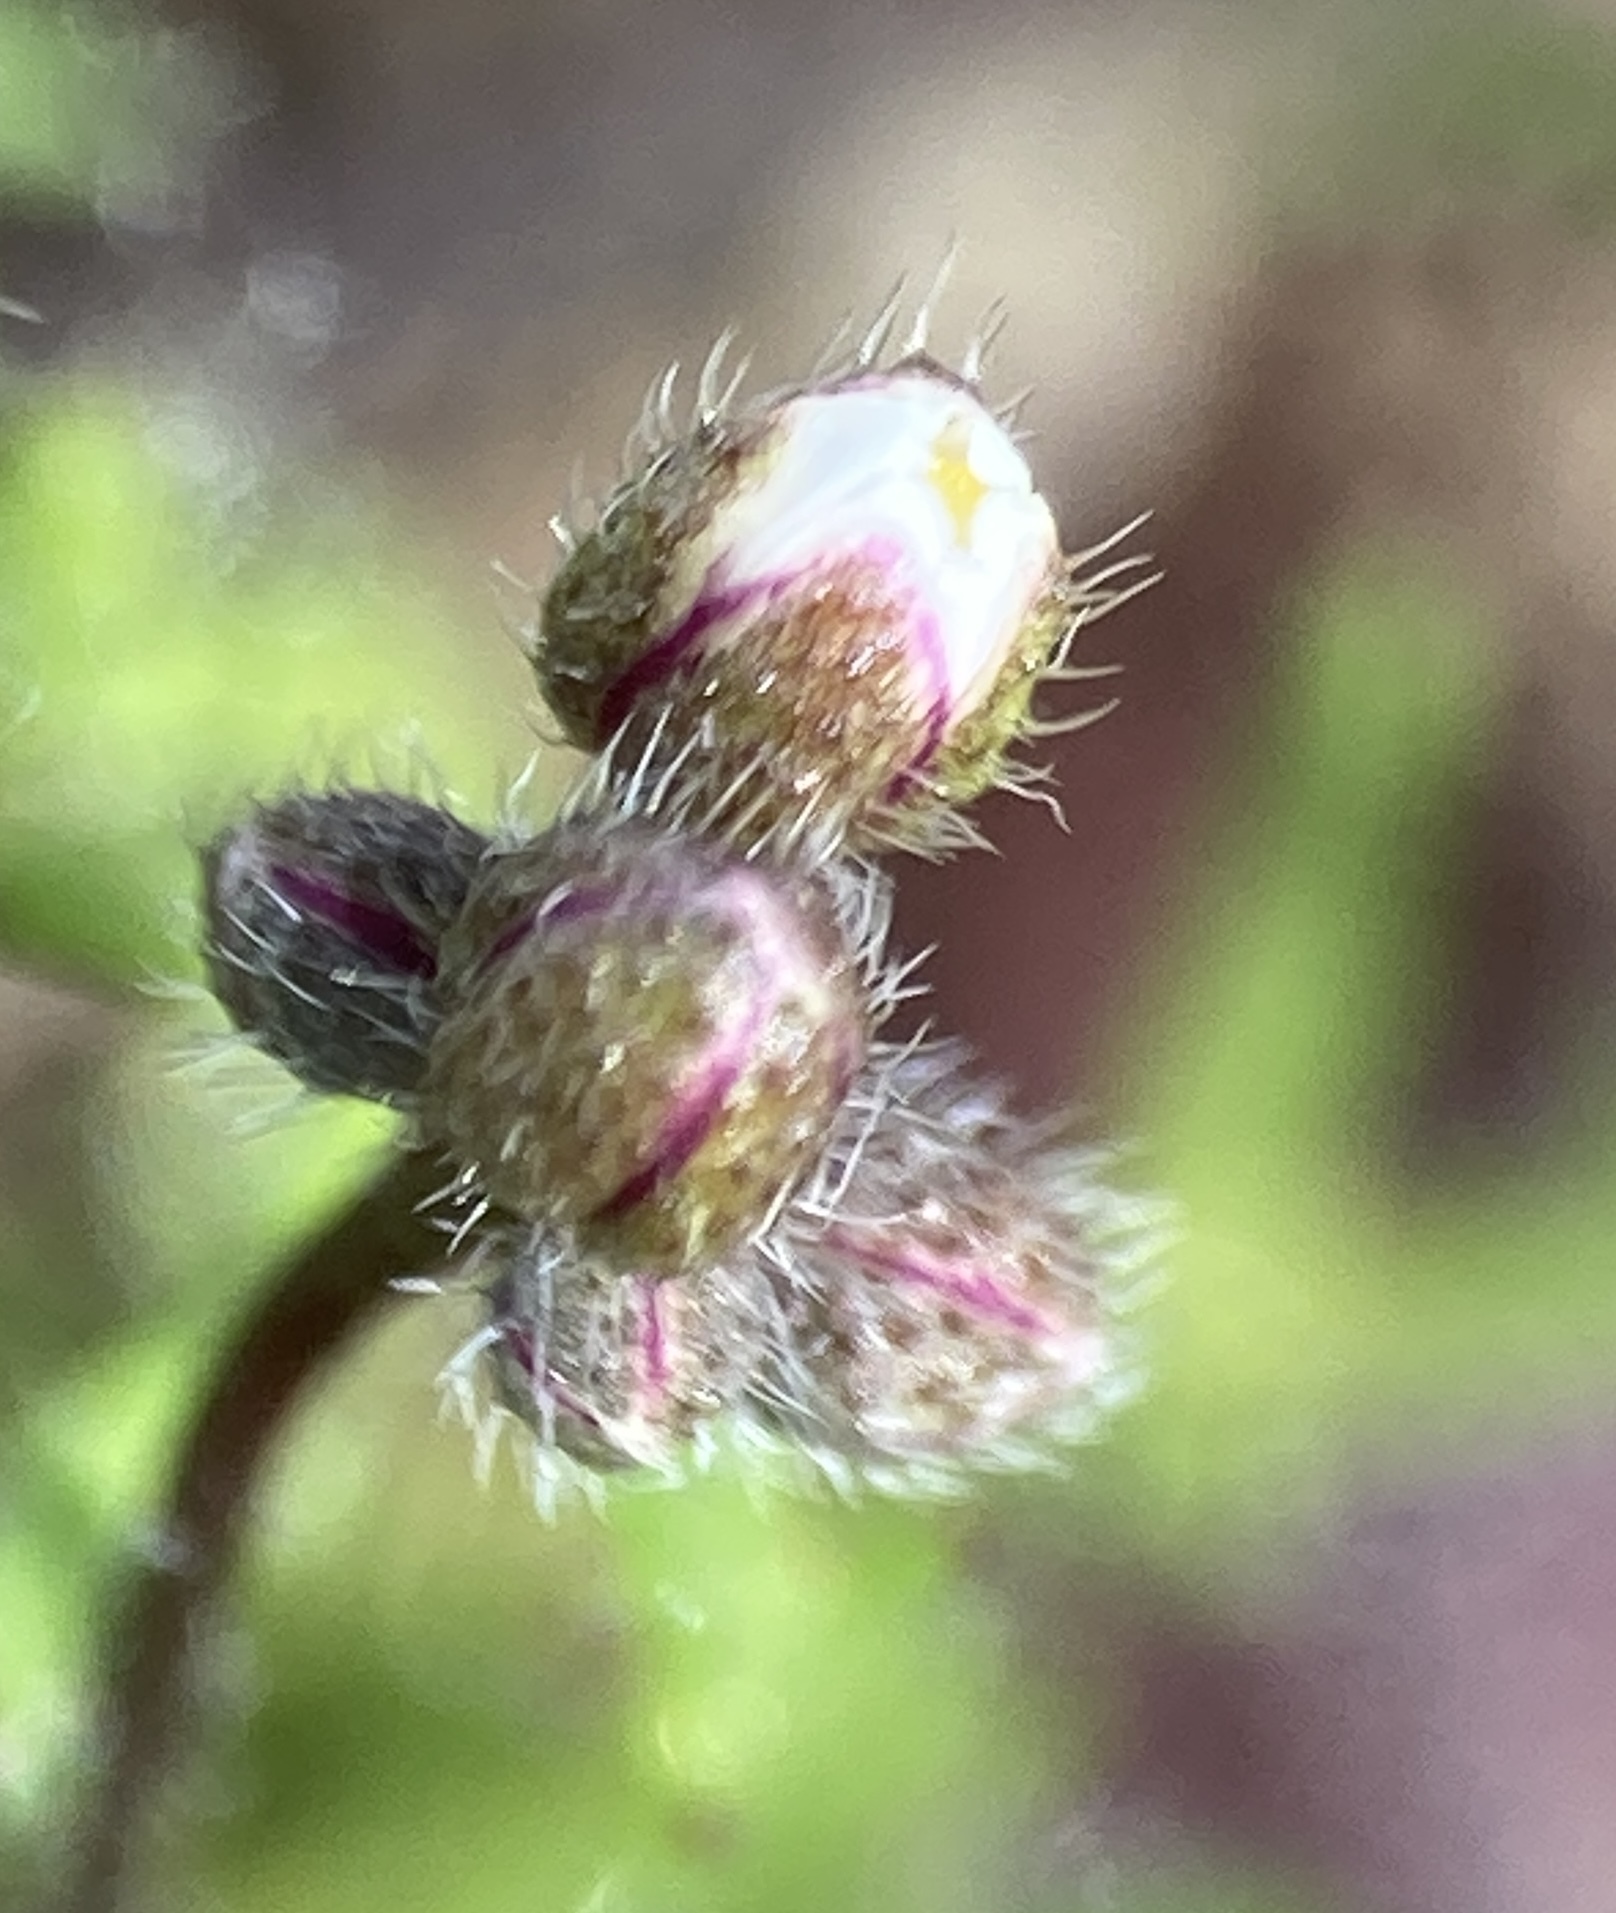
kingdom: Plantae
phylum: Tracheophyta
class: Magnoliopsida
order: Brassicales
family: Brassicaceae
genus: Draba
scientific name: Draba verna
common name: Spring draba
